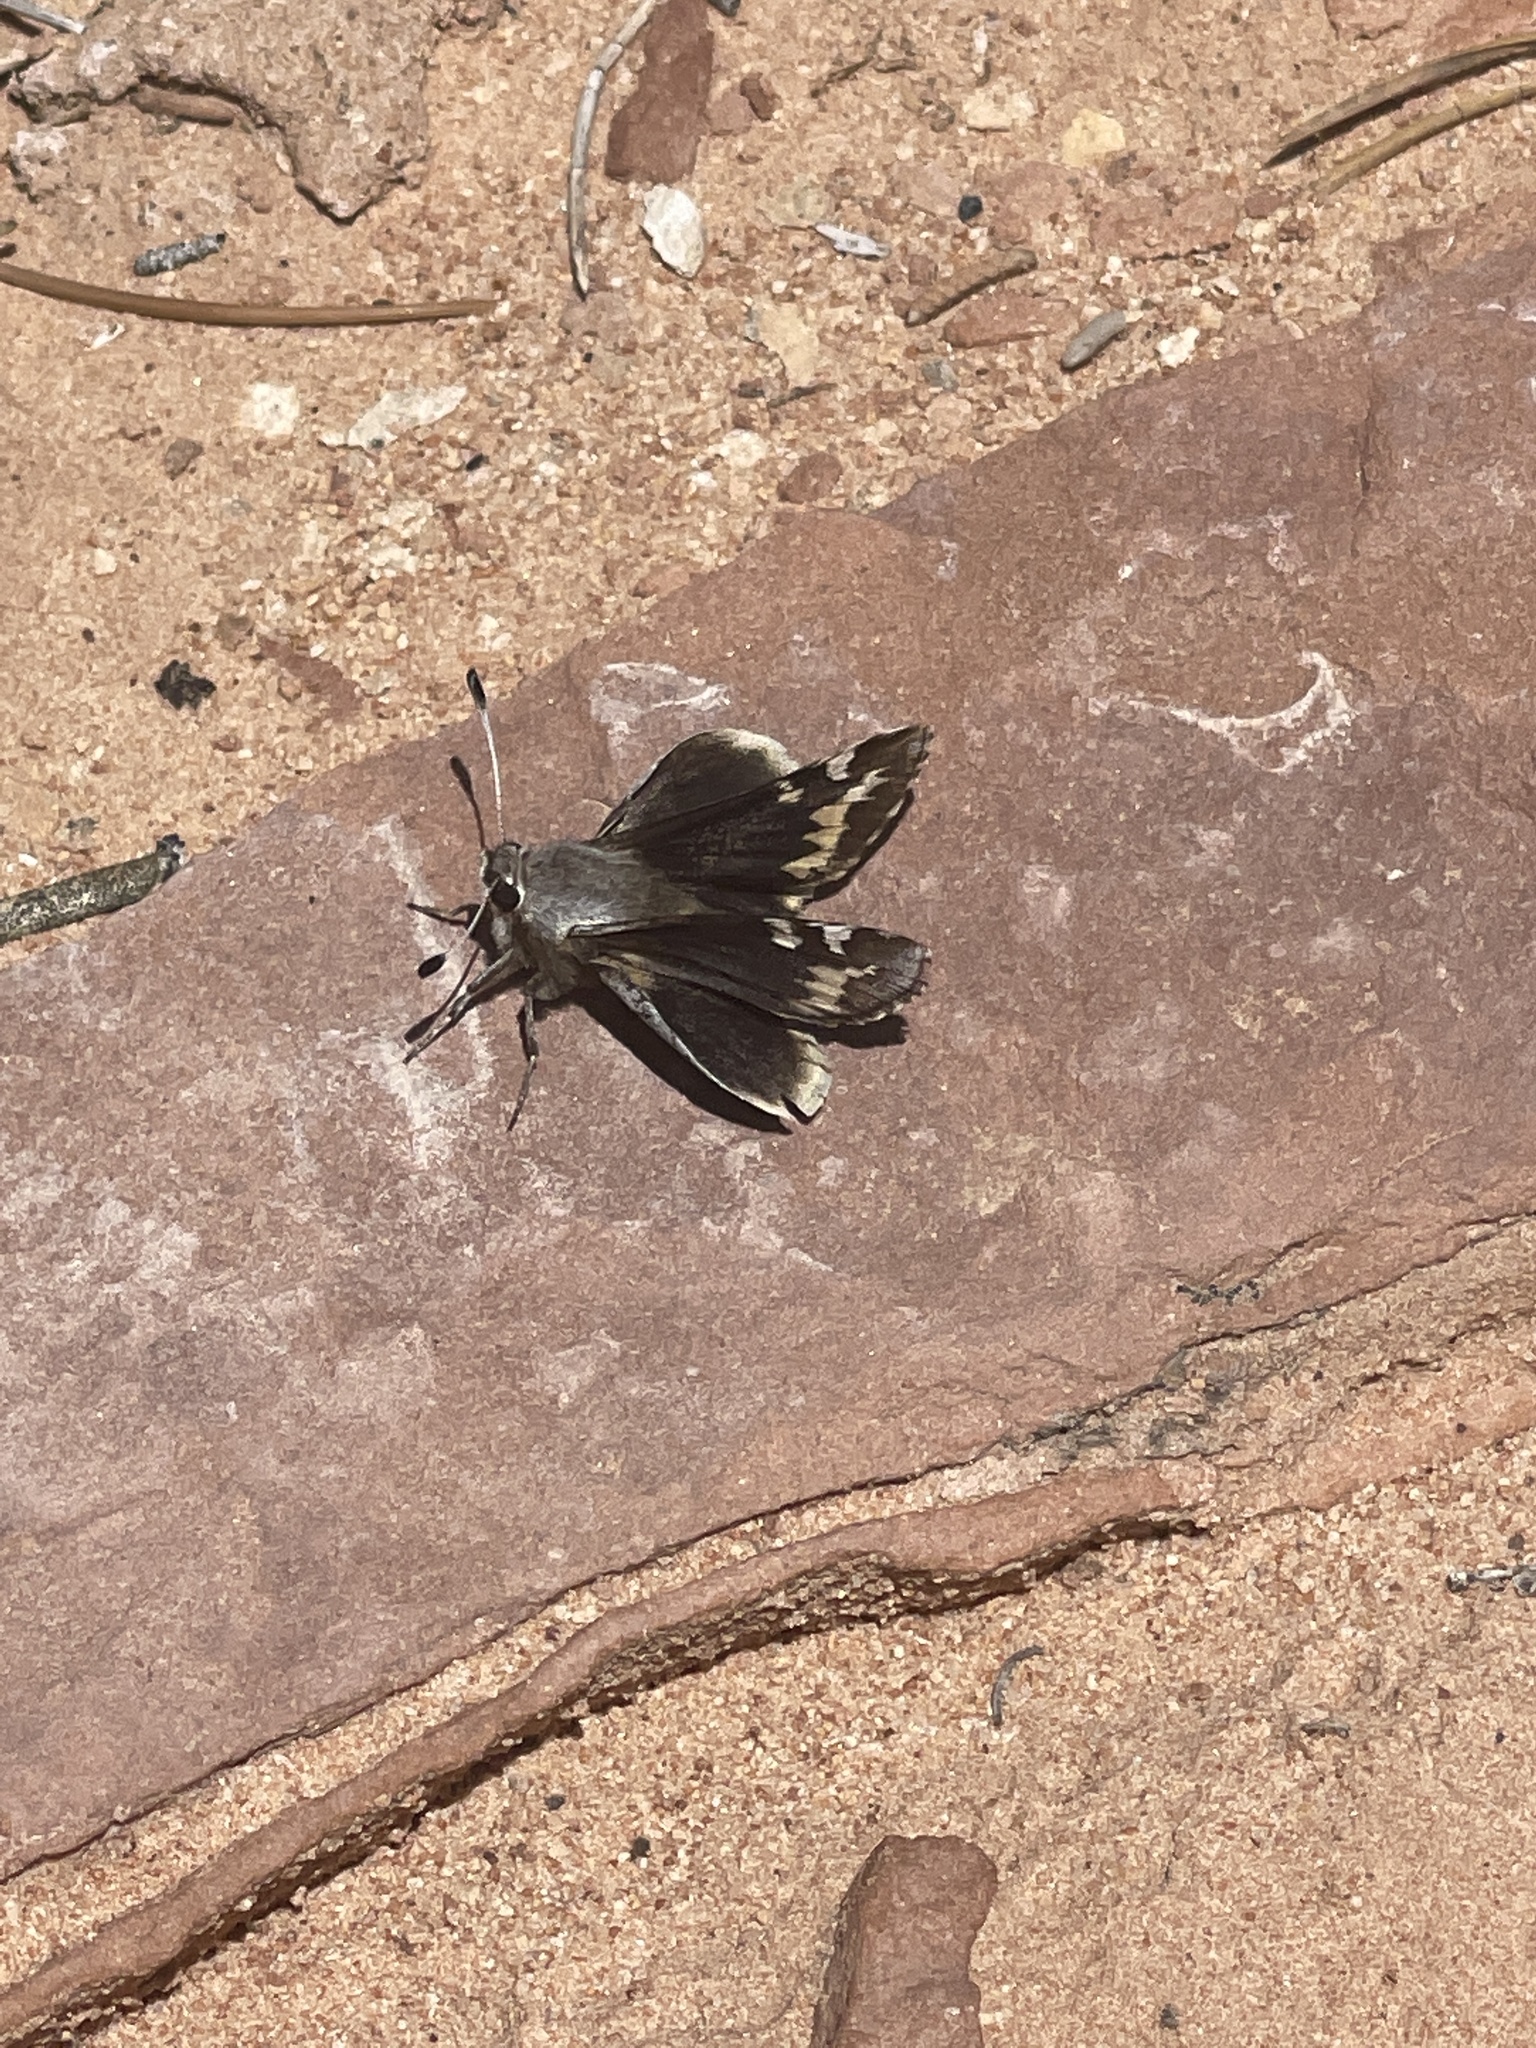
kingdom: Animalia
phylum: Arthropoda
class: Insecta
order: Lepidoptera
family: Hesperiidae
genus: Megathymus
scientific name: Megathymus yuccae
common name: Yucca giant-skipper
